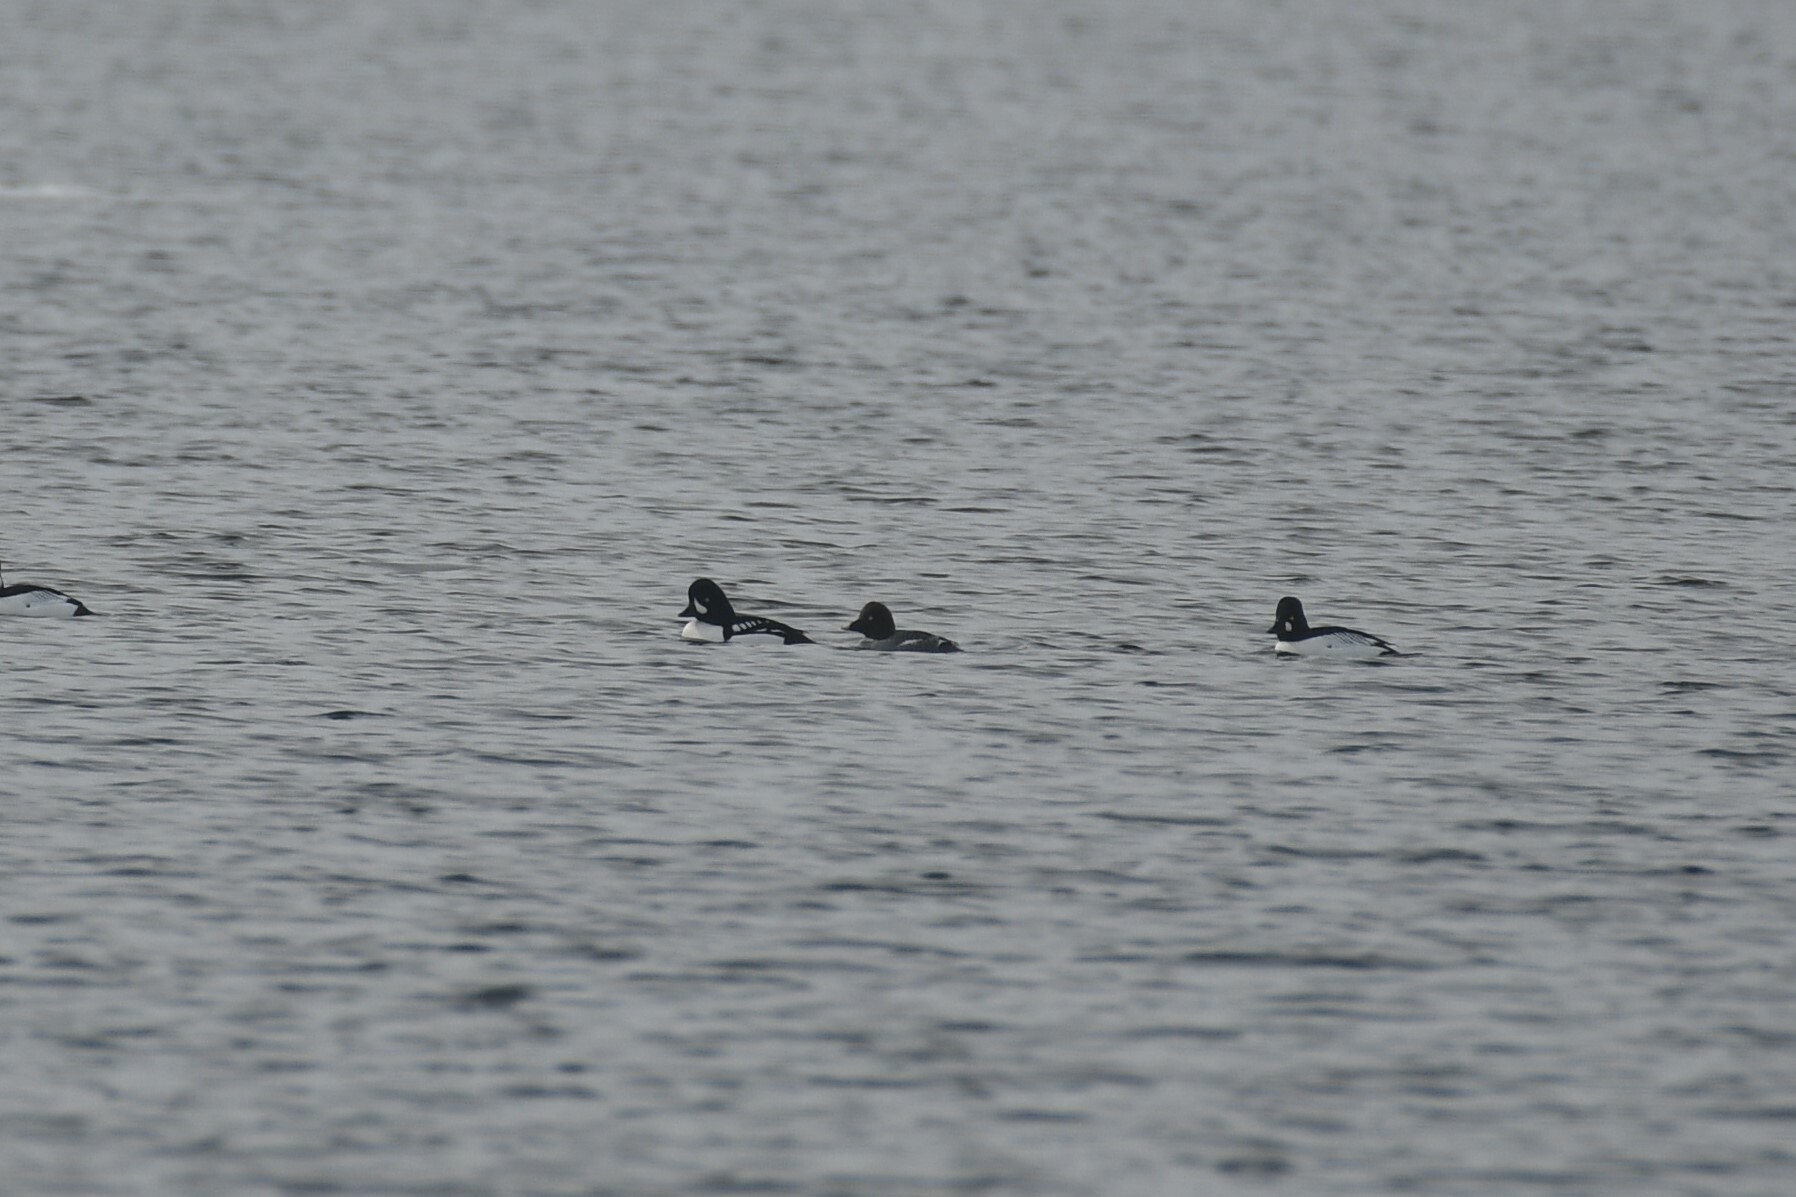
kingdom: Animalia
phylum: Chordata
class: Aves
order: Anseriformes
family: Anatidae
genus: Bucephala
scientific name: Bucephala islandica
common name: Barrow's goldeneye
